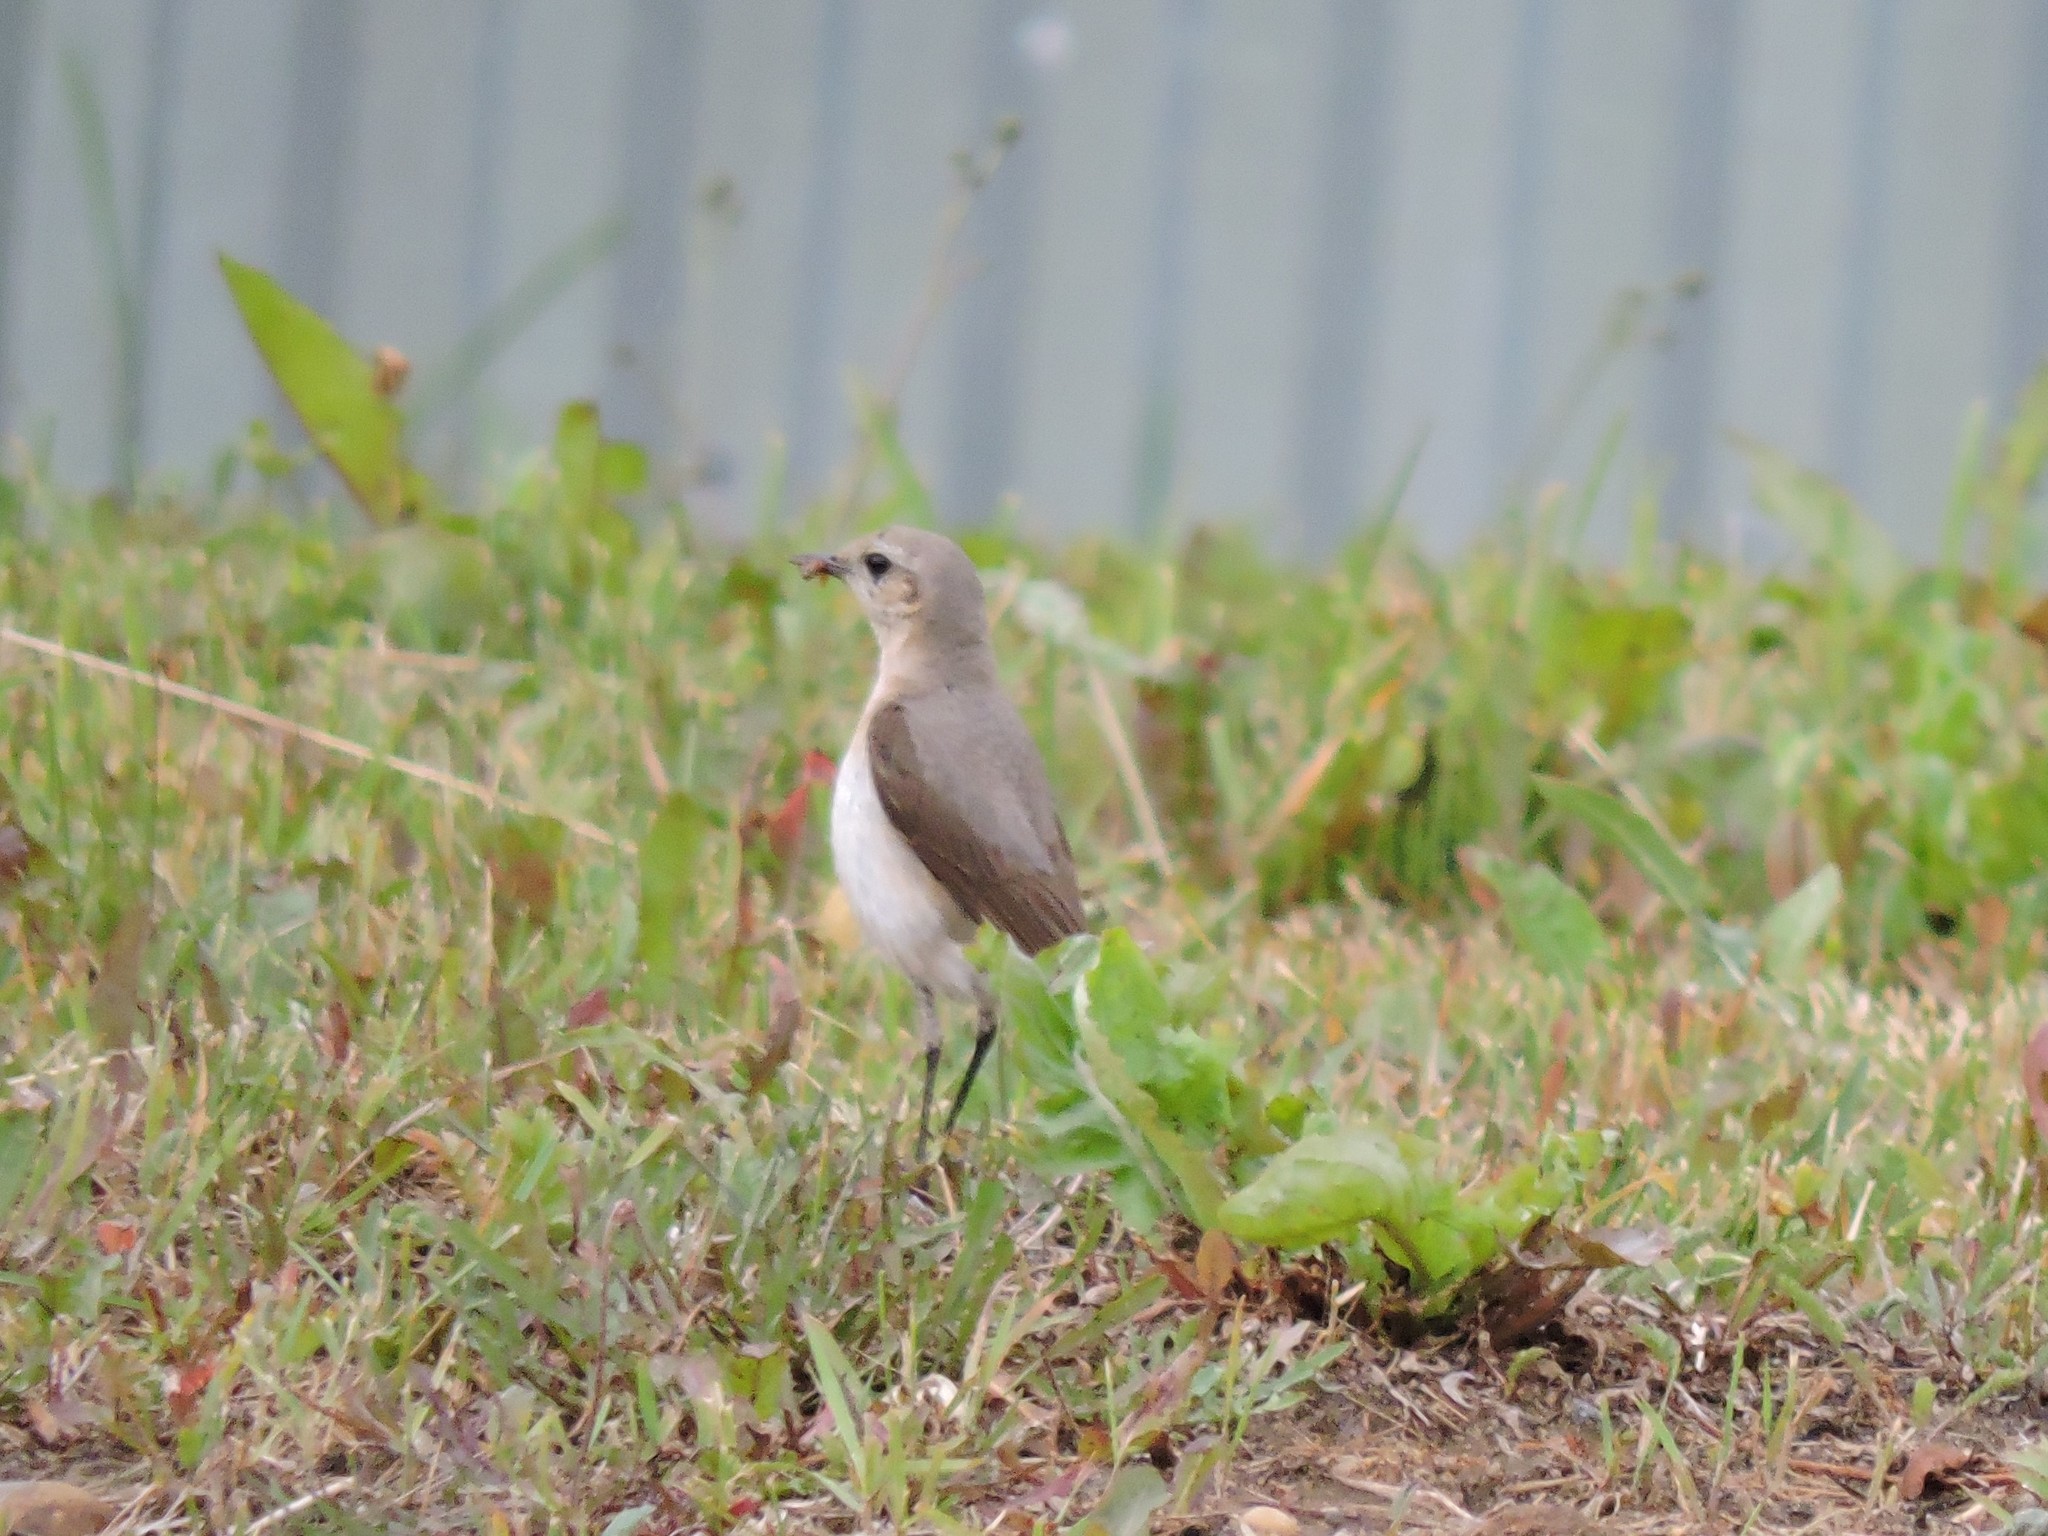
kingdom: Animalia
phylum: Chordata
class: Aves
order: Passeriformes
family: Muscicapidae
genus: Oenanthe
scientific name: Oenanthe oenanthe
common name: Northern wheatear
